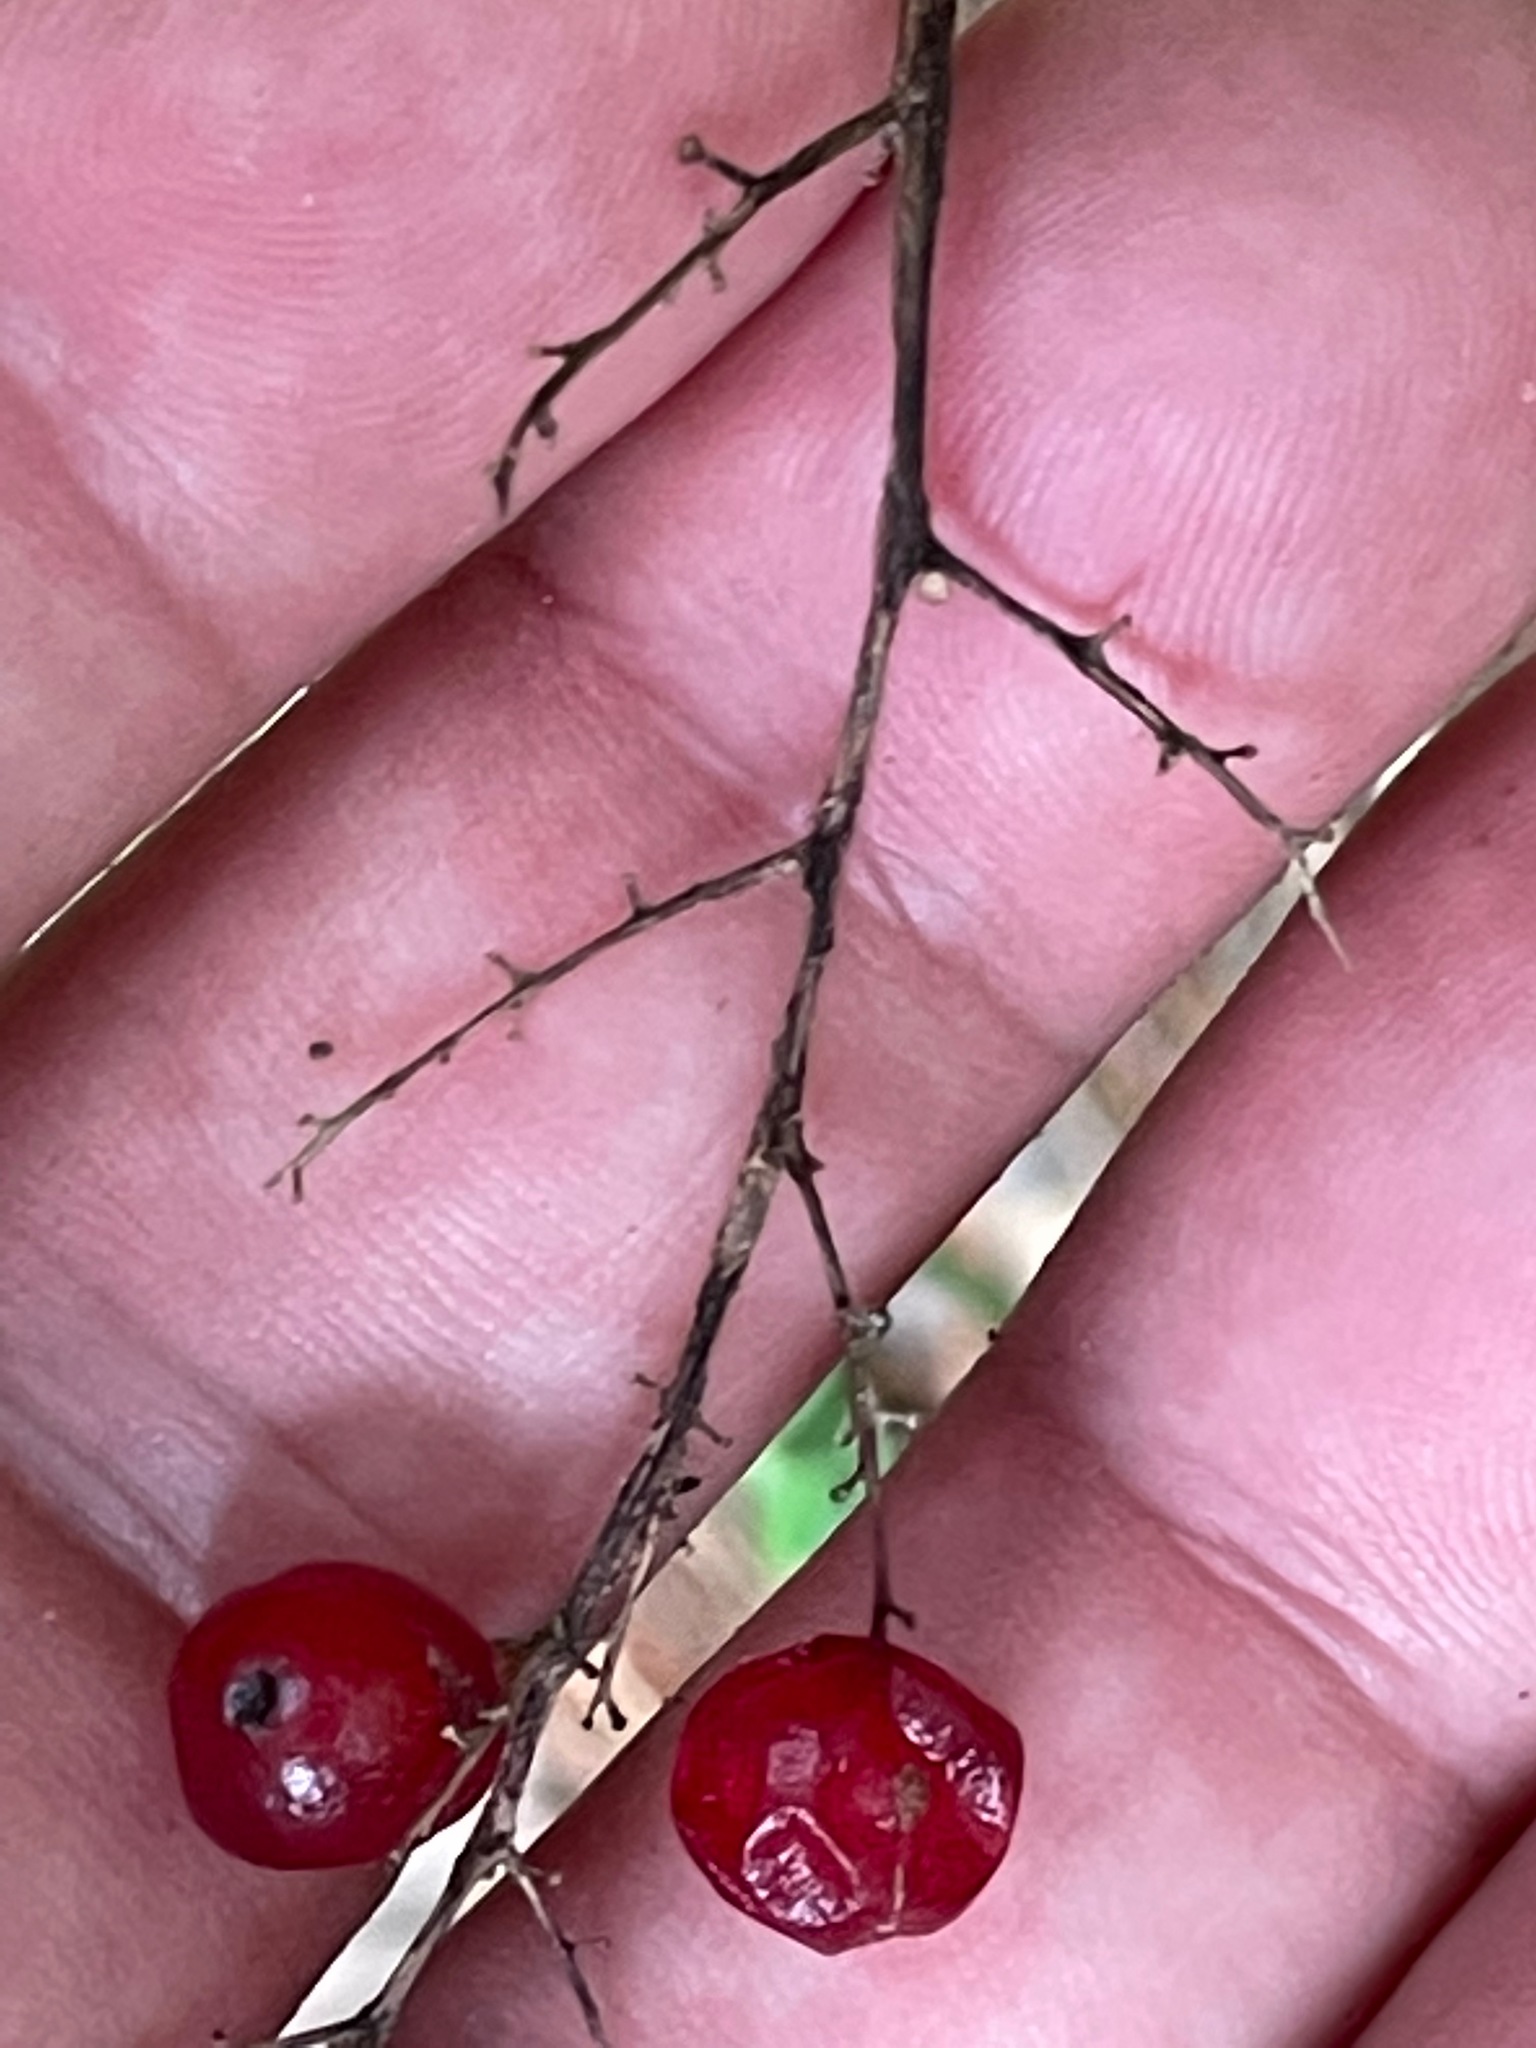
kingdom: Plantae
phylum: Tracheophyta
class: Liliopsida
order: Asparagales
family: Asparagaceae
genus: Maianthemum
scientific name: Maianthemum racemosum
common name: False spikenard
